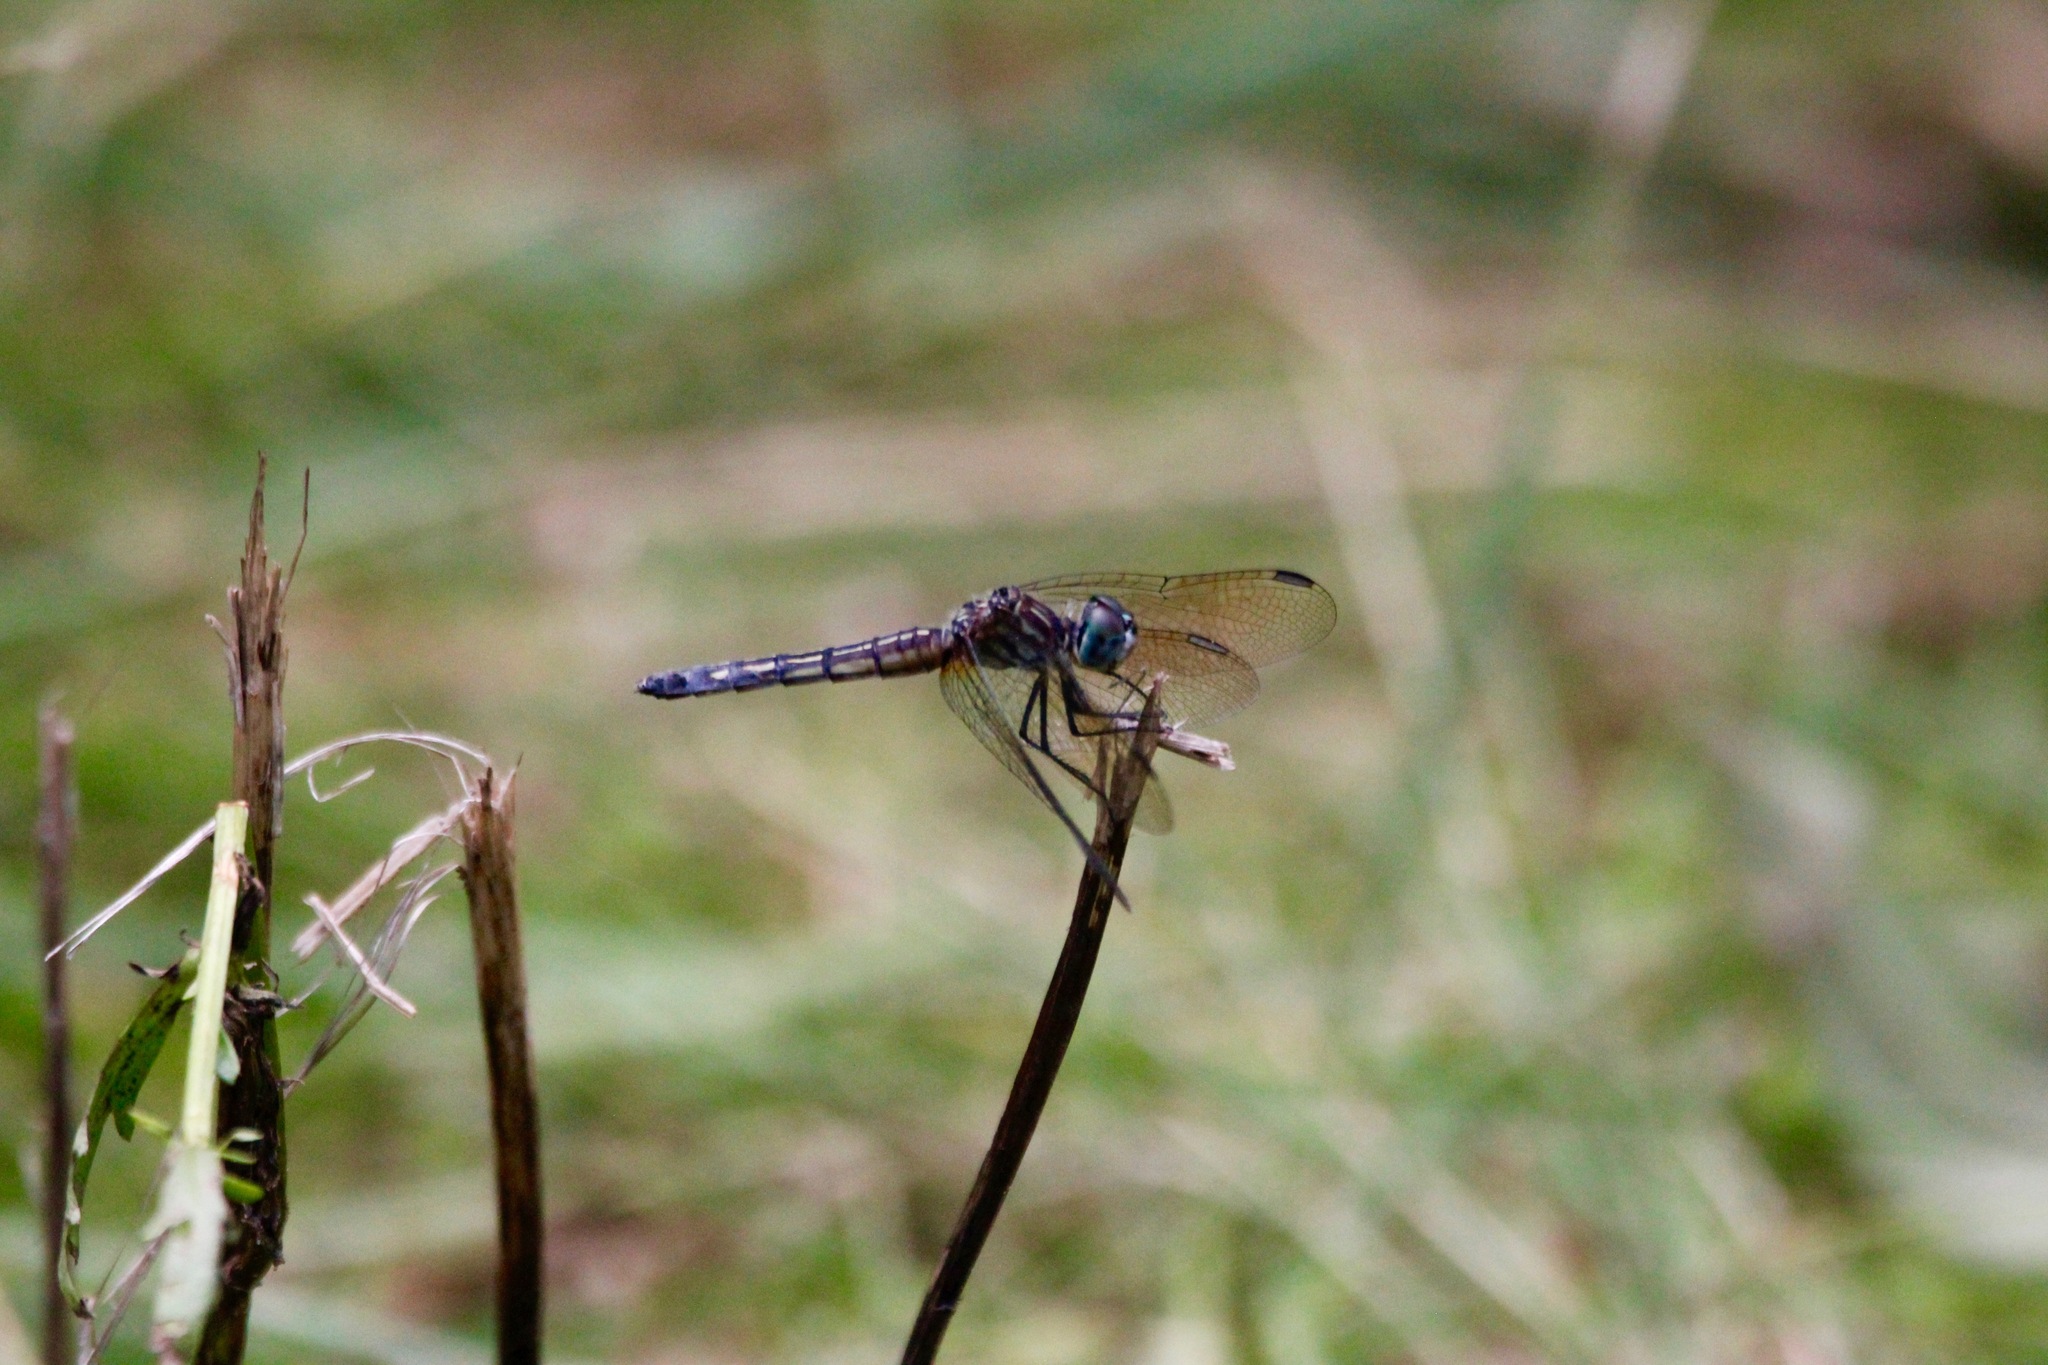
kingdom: Animalia
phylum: Arthropoda
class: Insecta
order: Odonata
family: Libellulidae
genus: Pachydiplax
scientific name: Pachydiplax longipennis
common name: Blue dasher
